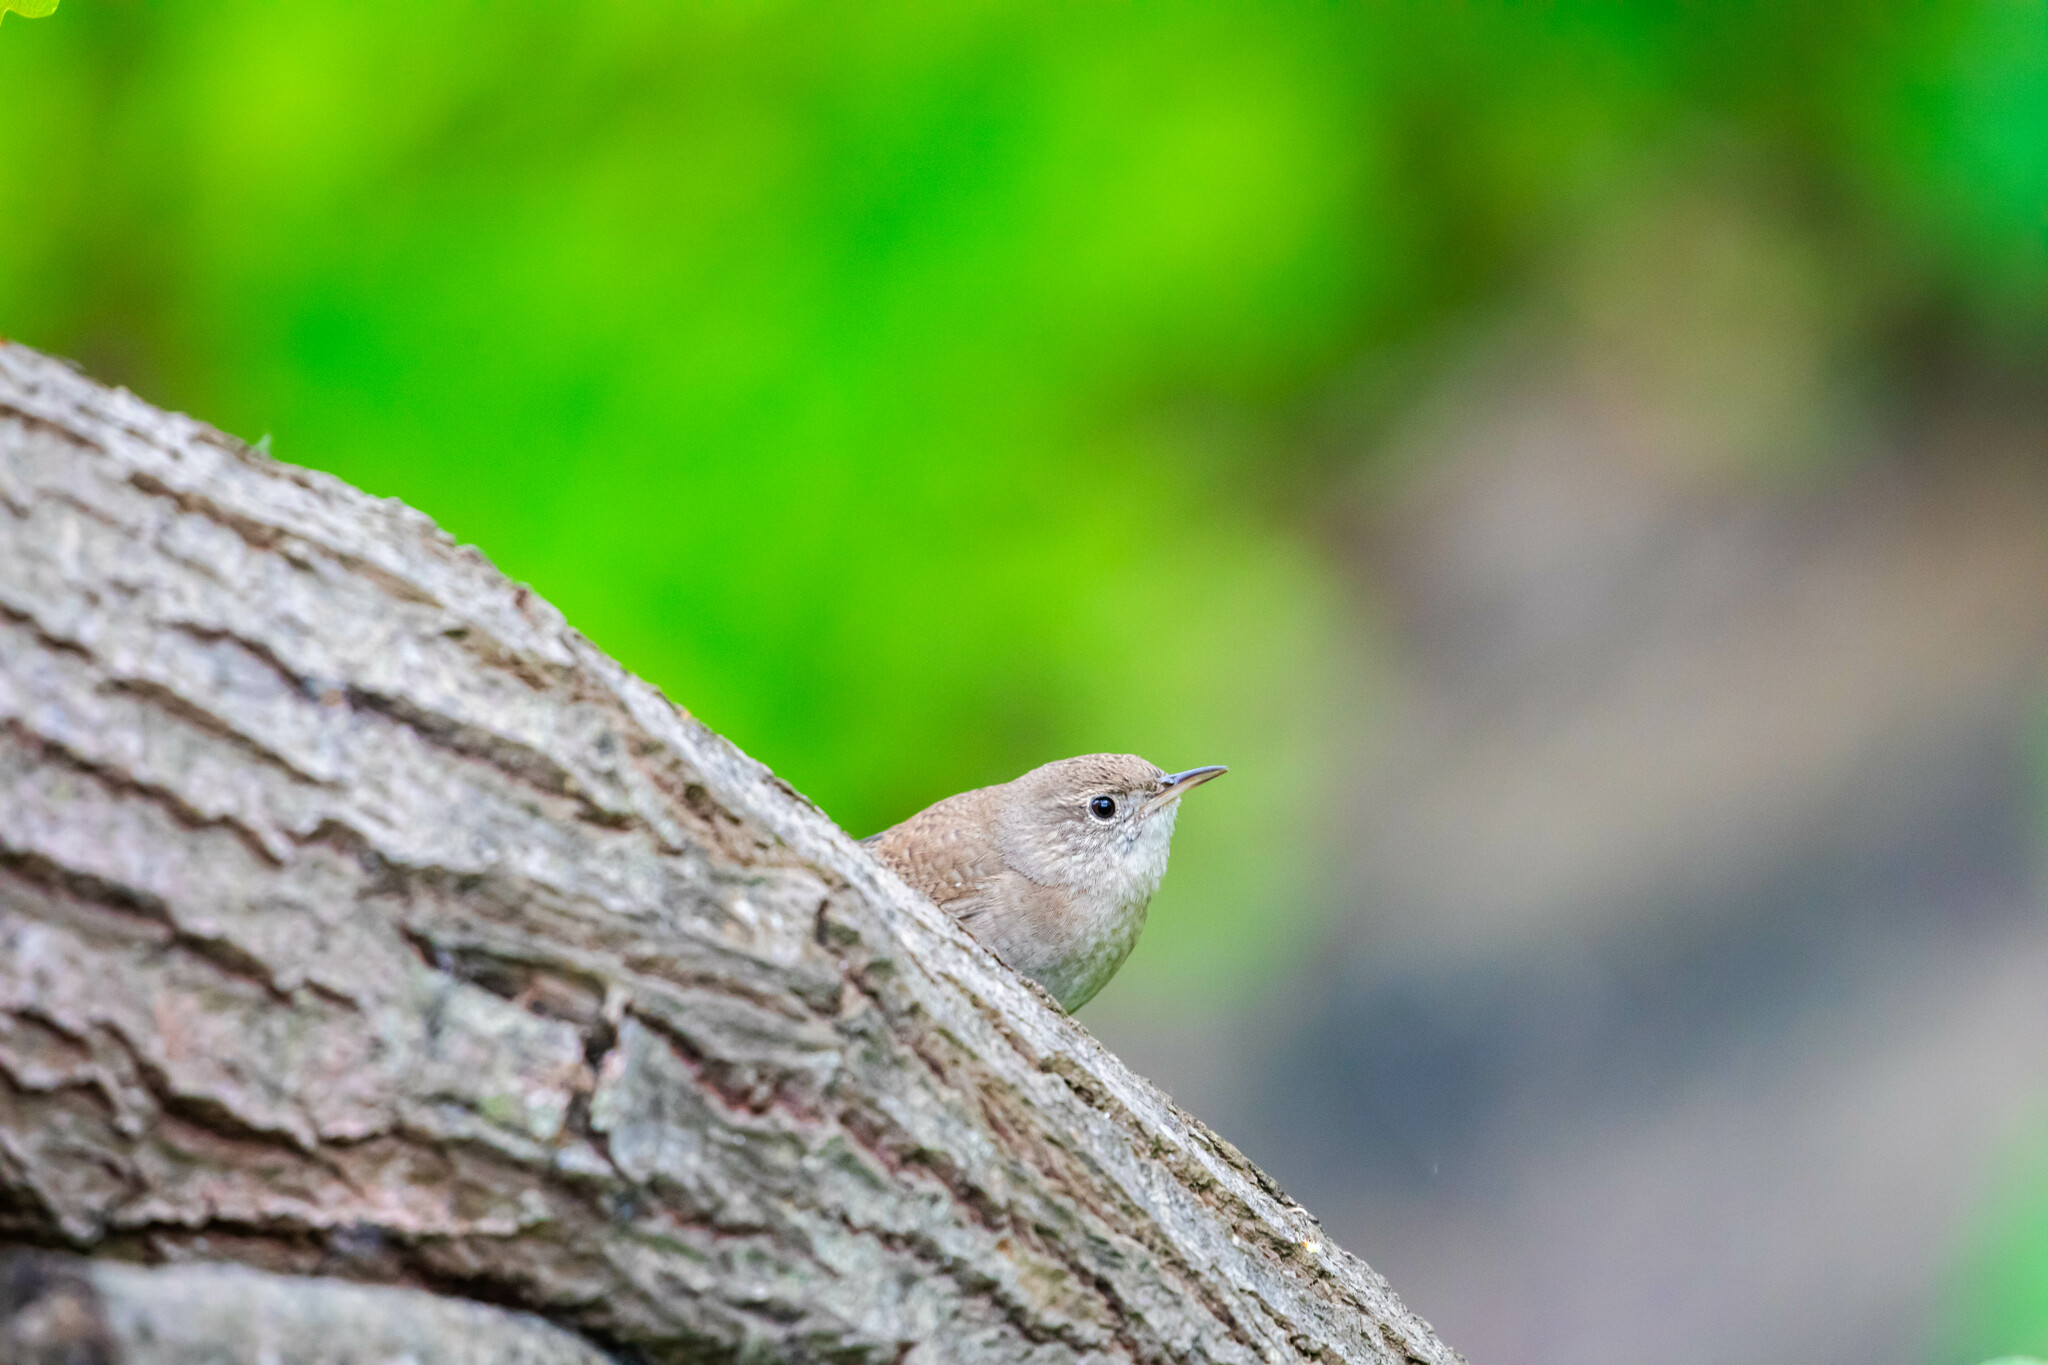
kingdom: Animalia
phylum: Chordata
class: Aves
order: Passeriformes
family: Troglodytidae
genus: Troglodytes
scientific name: Troglodytes aedon
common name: House wren
